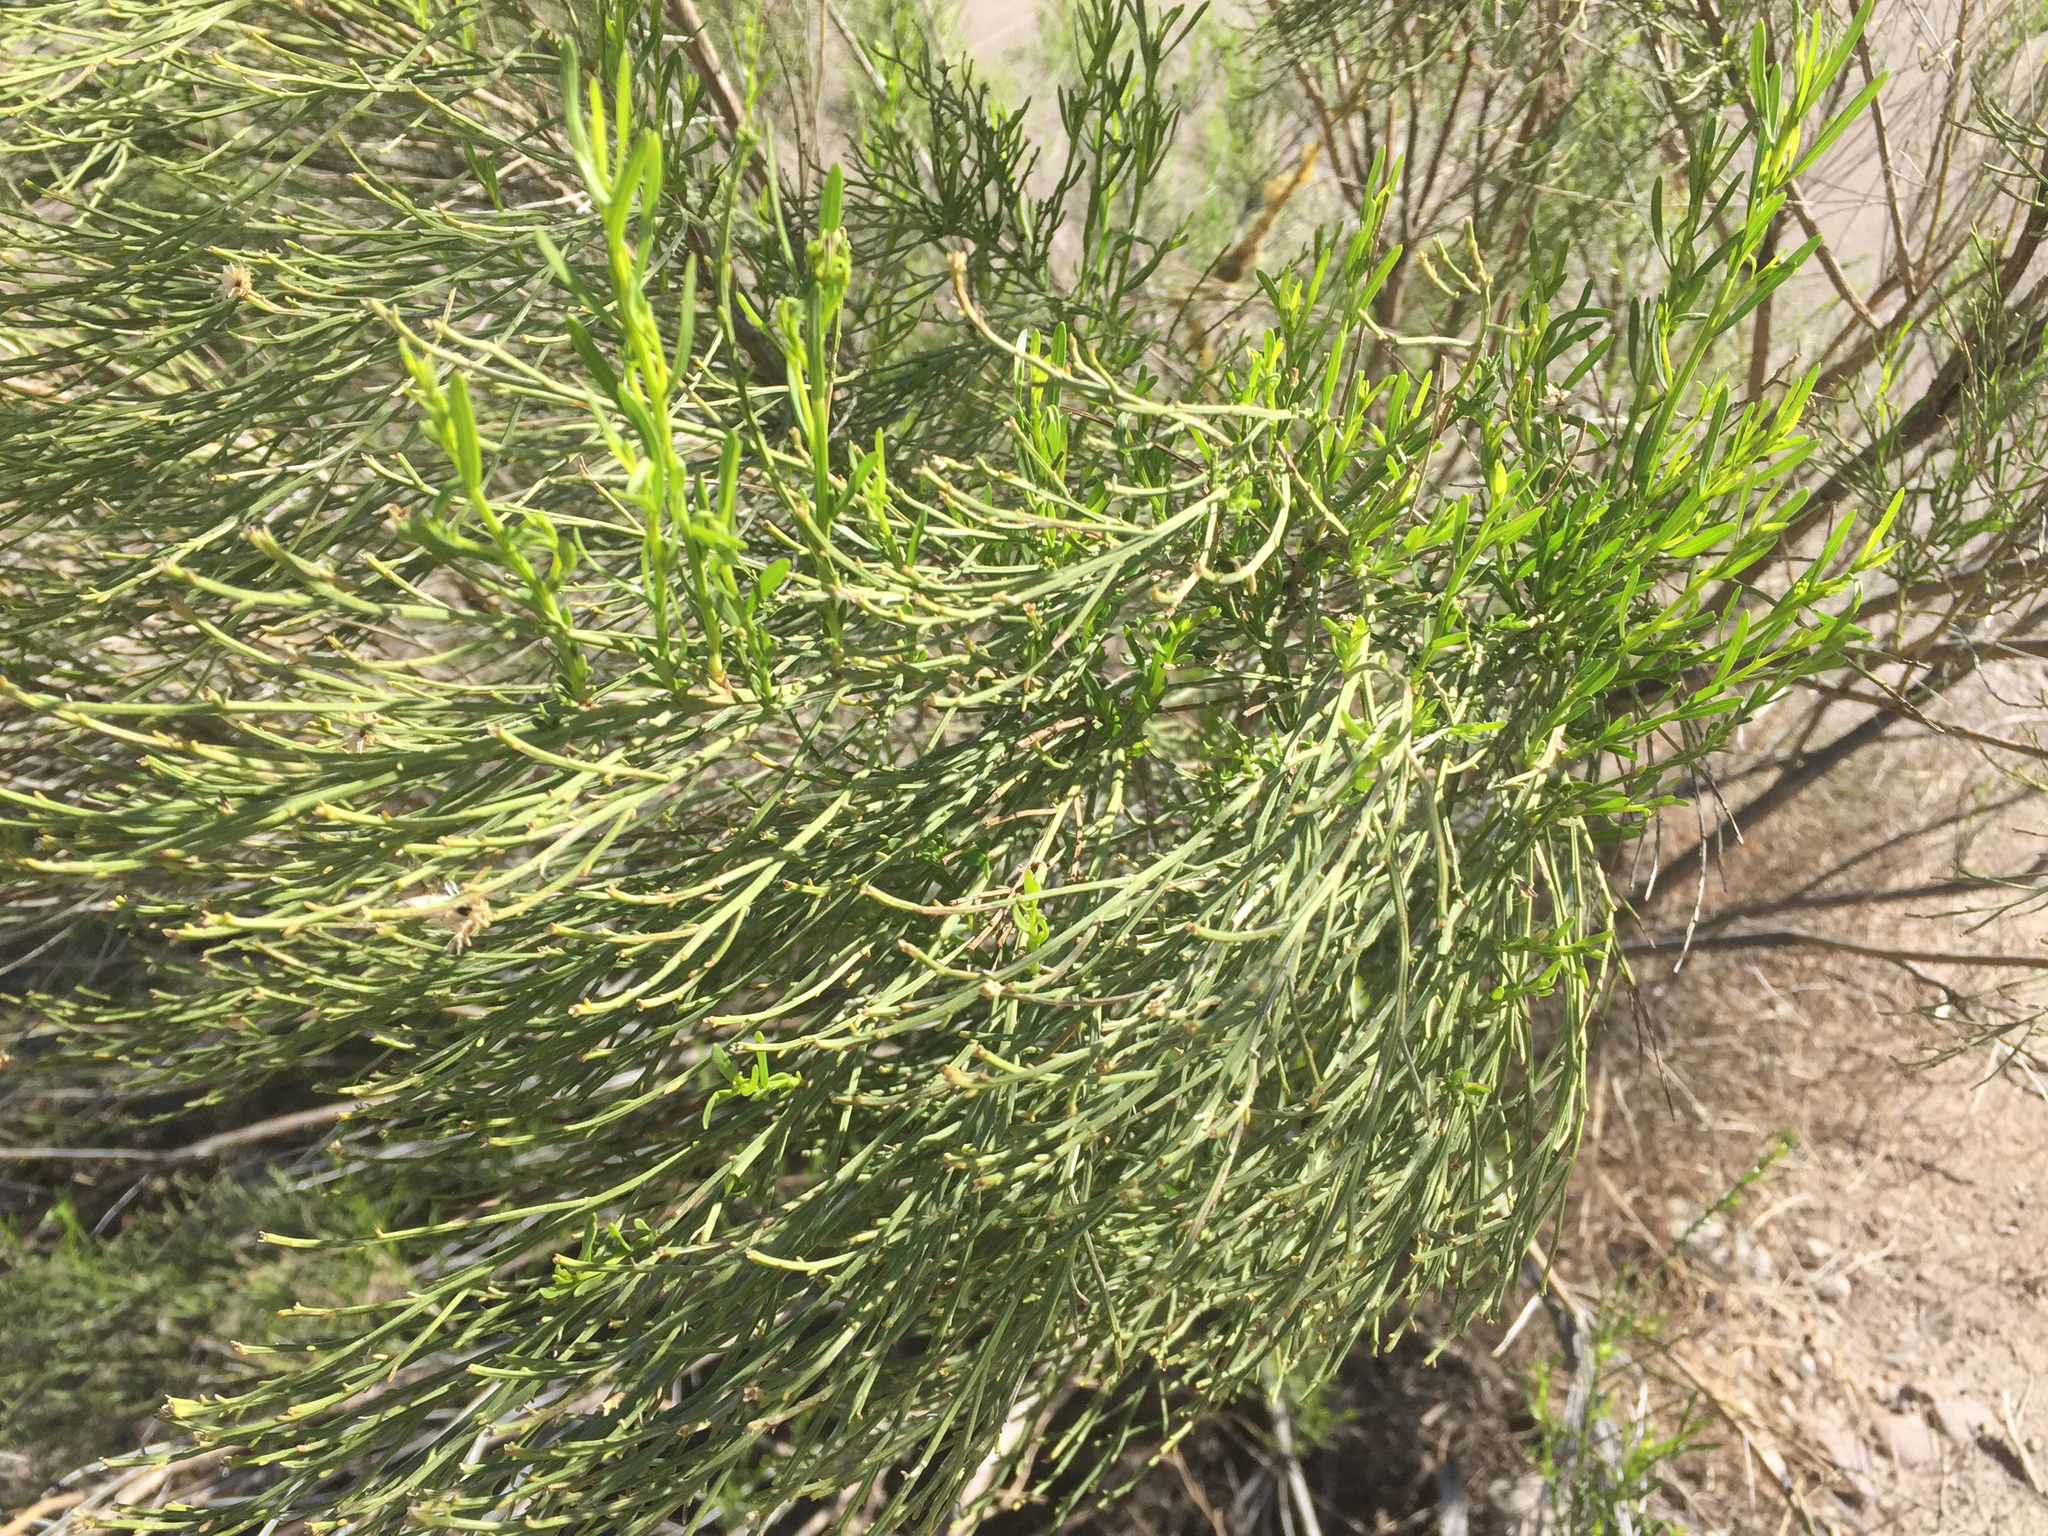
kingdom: Plantae
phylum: Tracheophyta
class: Magnoliopsida
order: Asterales
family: Asteraceae
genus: Baccharis
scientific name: Baccharis sarothroides
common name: Desert-broom
